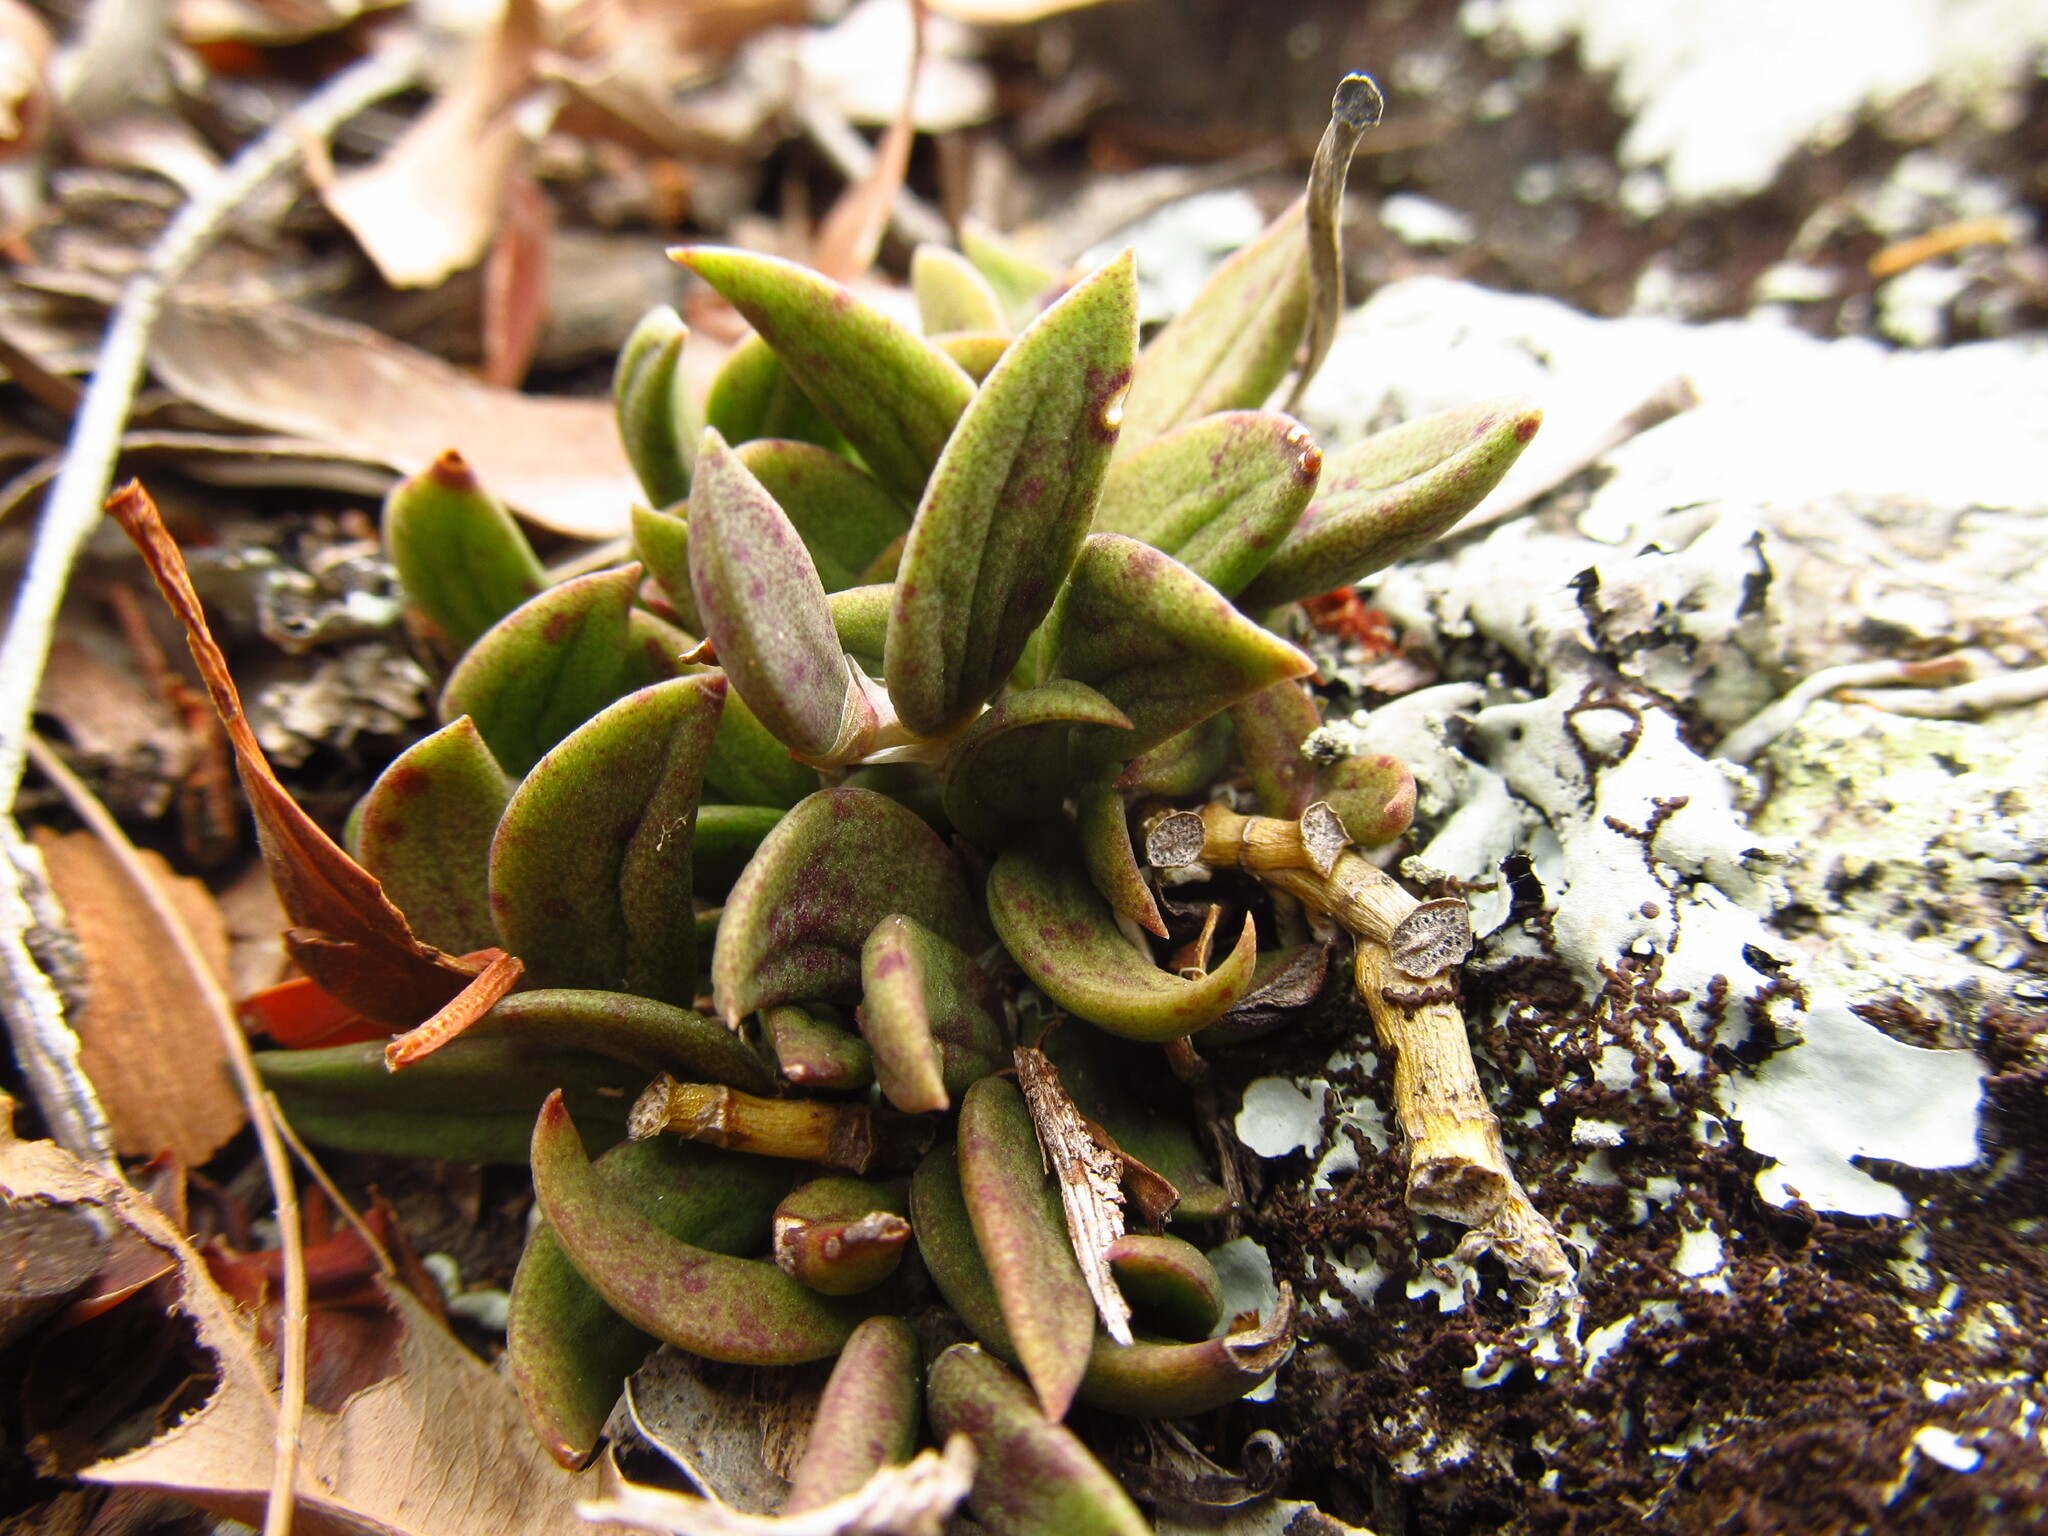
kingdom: Plantae
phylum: Tracheophyta
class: Liliopsida
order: Asparagales
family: Orchidaceae
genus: Dendrobium
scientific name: Dendrobium linguiforme
